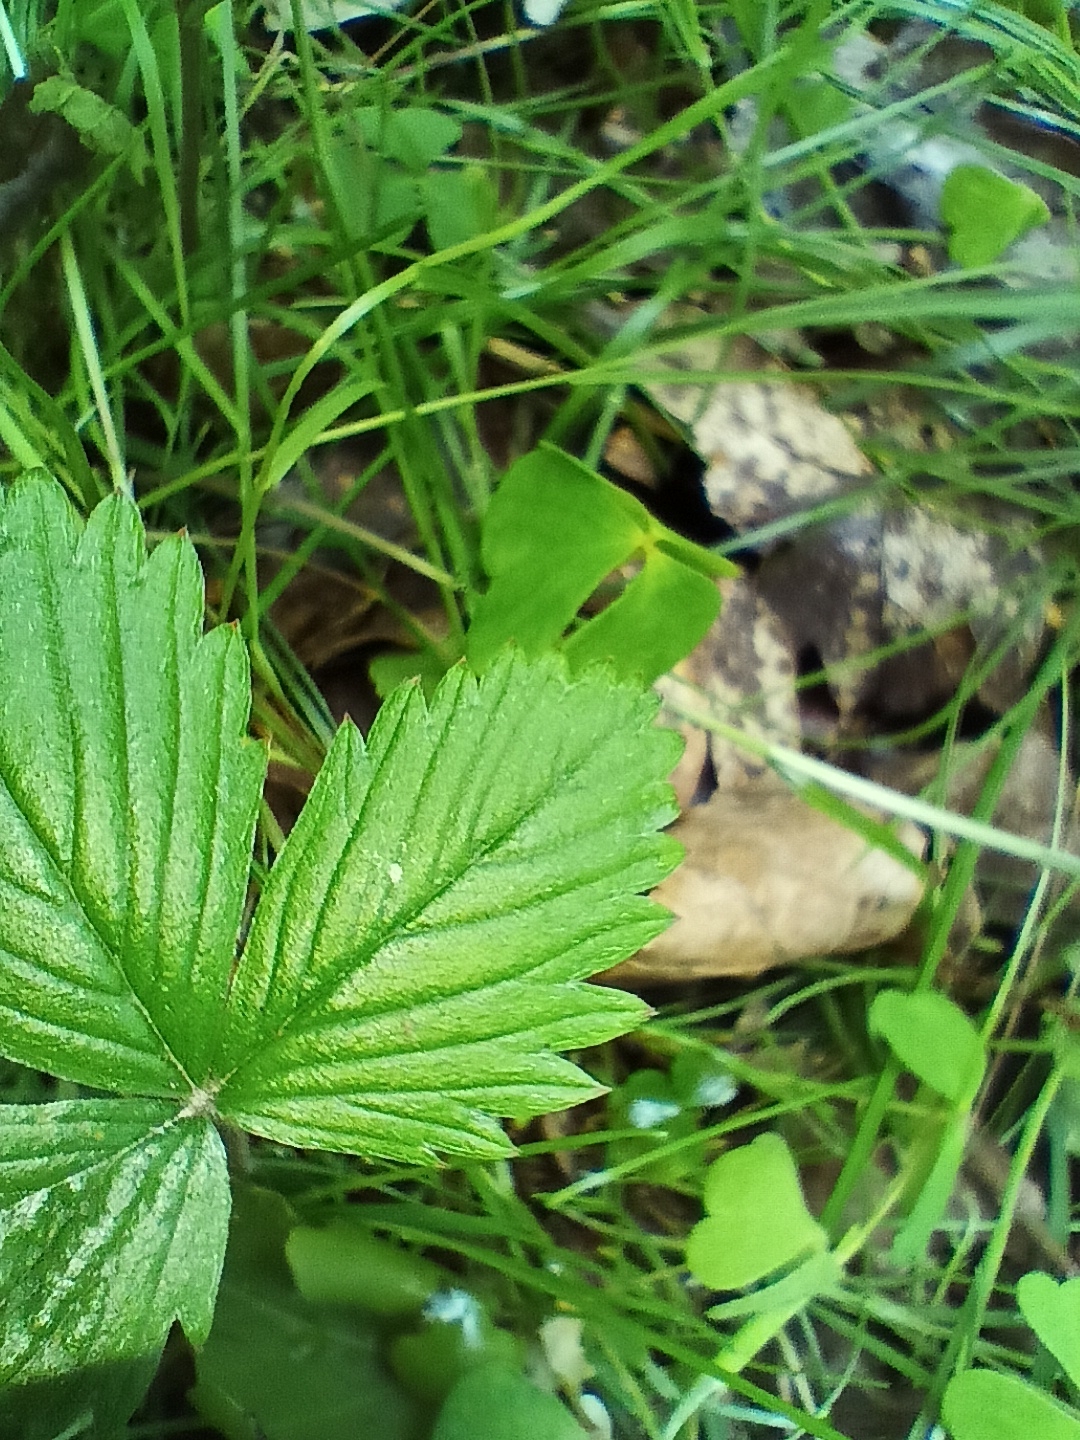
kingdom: Plantae
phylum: Tracheophyta
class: Magnoliopsida
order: Rosales
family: Rosaceae
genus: Fragaria
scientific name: Fragaria vesca
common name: Wild strawberry
